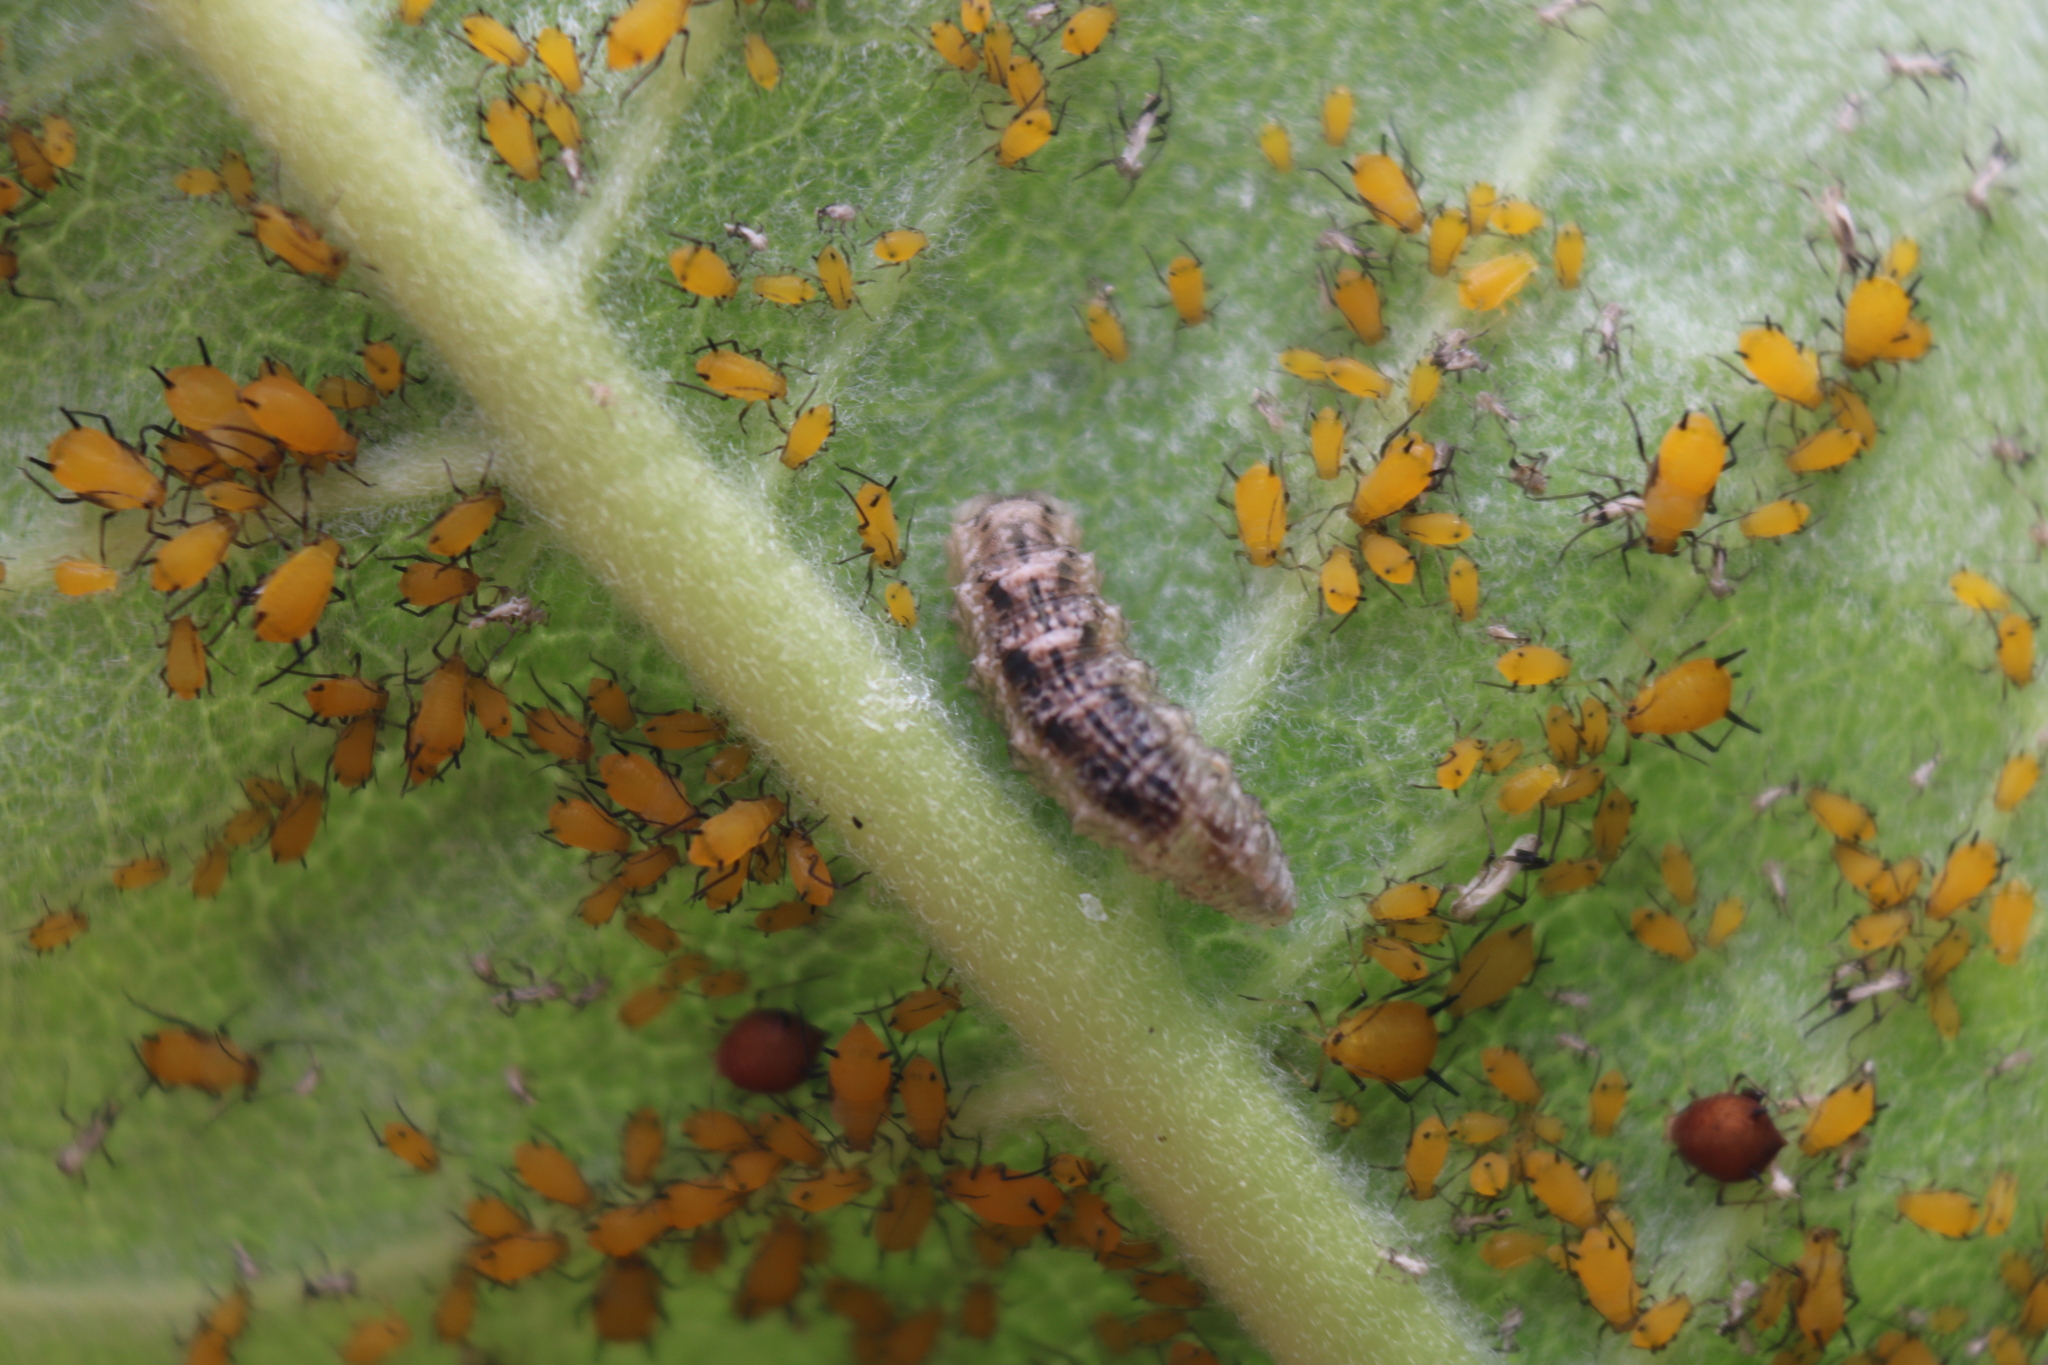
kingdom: Animalia
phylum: Arthropoda
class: Insecta
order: Diptera
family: Syrphidae
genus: Eupeodes
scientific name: Eupeodes americanus
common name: Long-tailed aphideater
